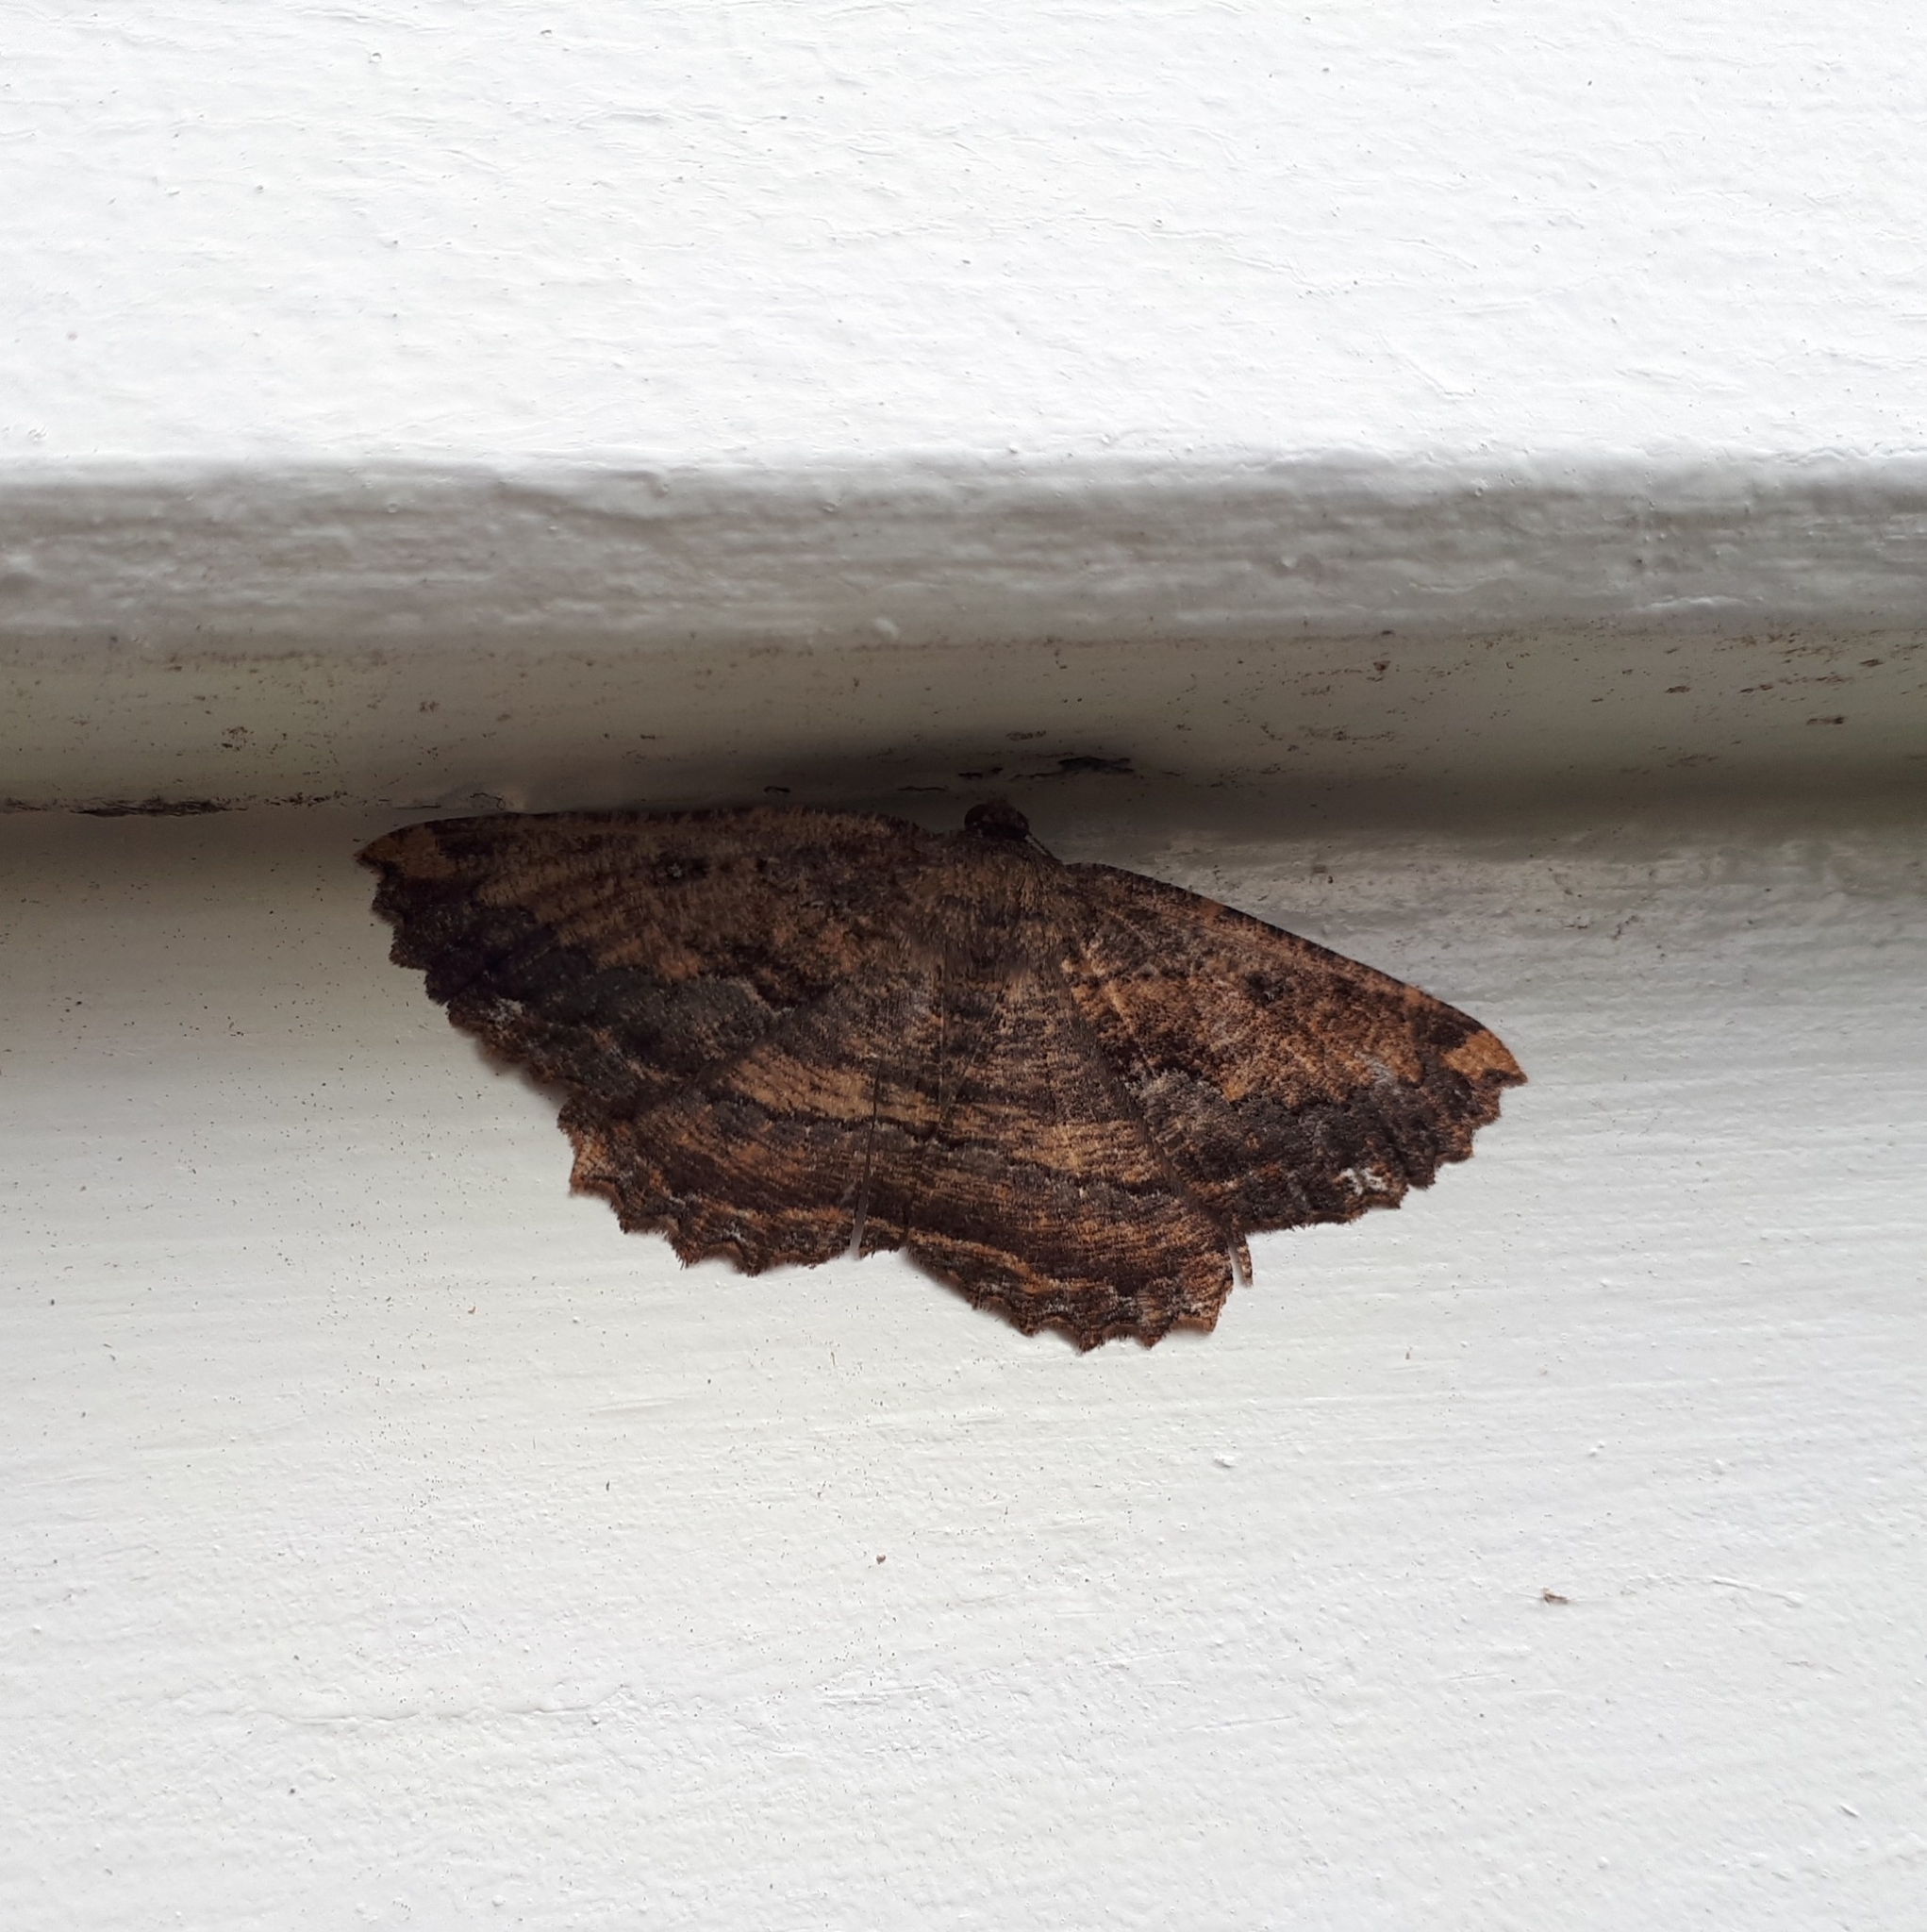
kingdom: Animalia
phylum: Arthropoda
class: Insecta
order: Lepidoptera
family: Geometridae
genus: Gellonia
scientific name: Gellonia dejectaria
